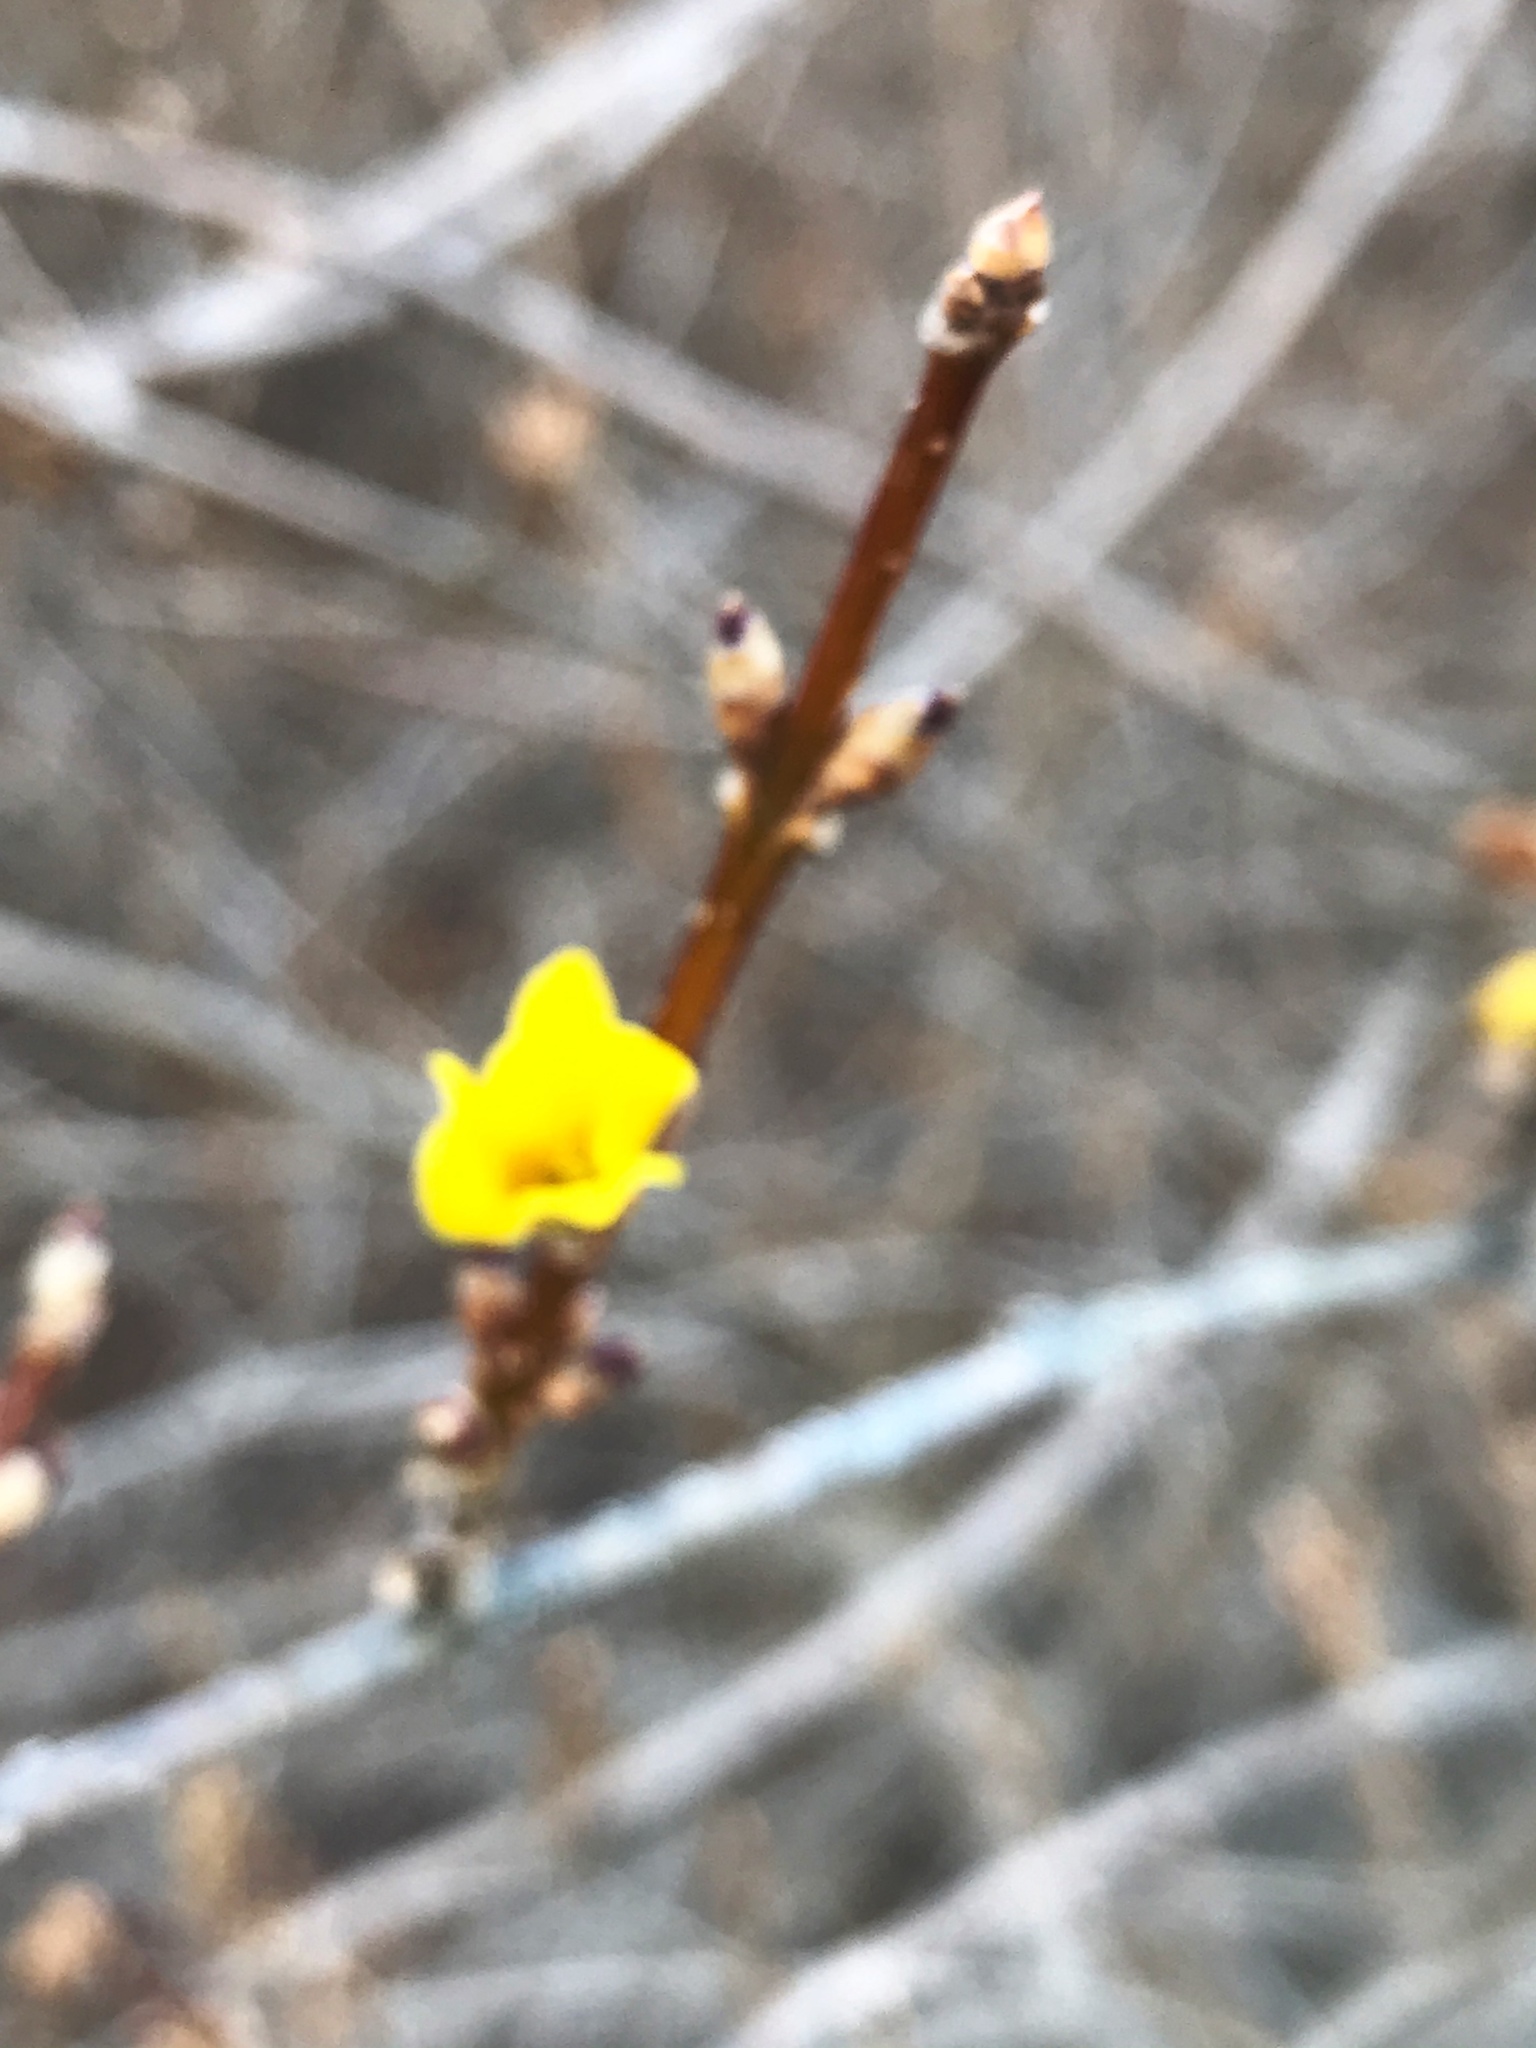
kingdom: Plantae
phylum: Tracheophyta
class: Magnoliopsida
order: Lamiales
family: Oleaceae
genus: Forsythia
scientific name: Forsythia
